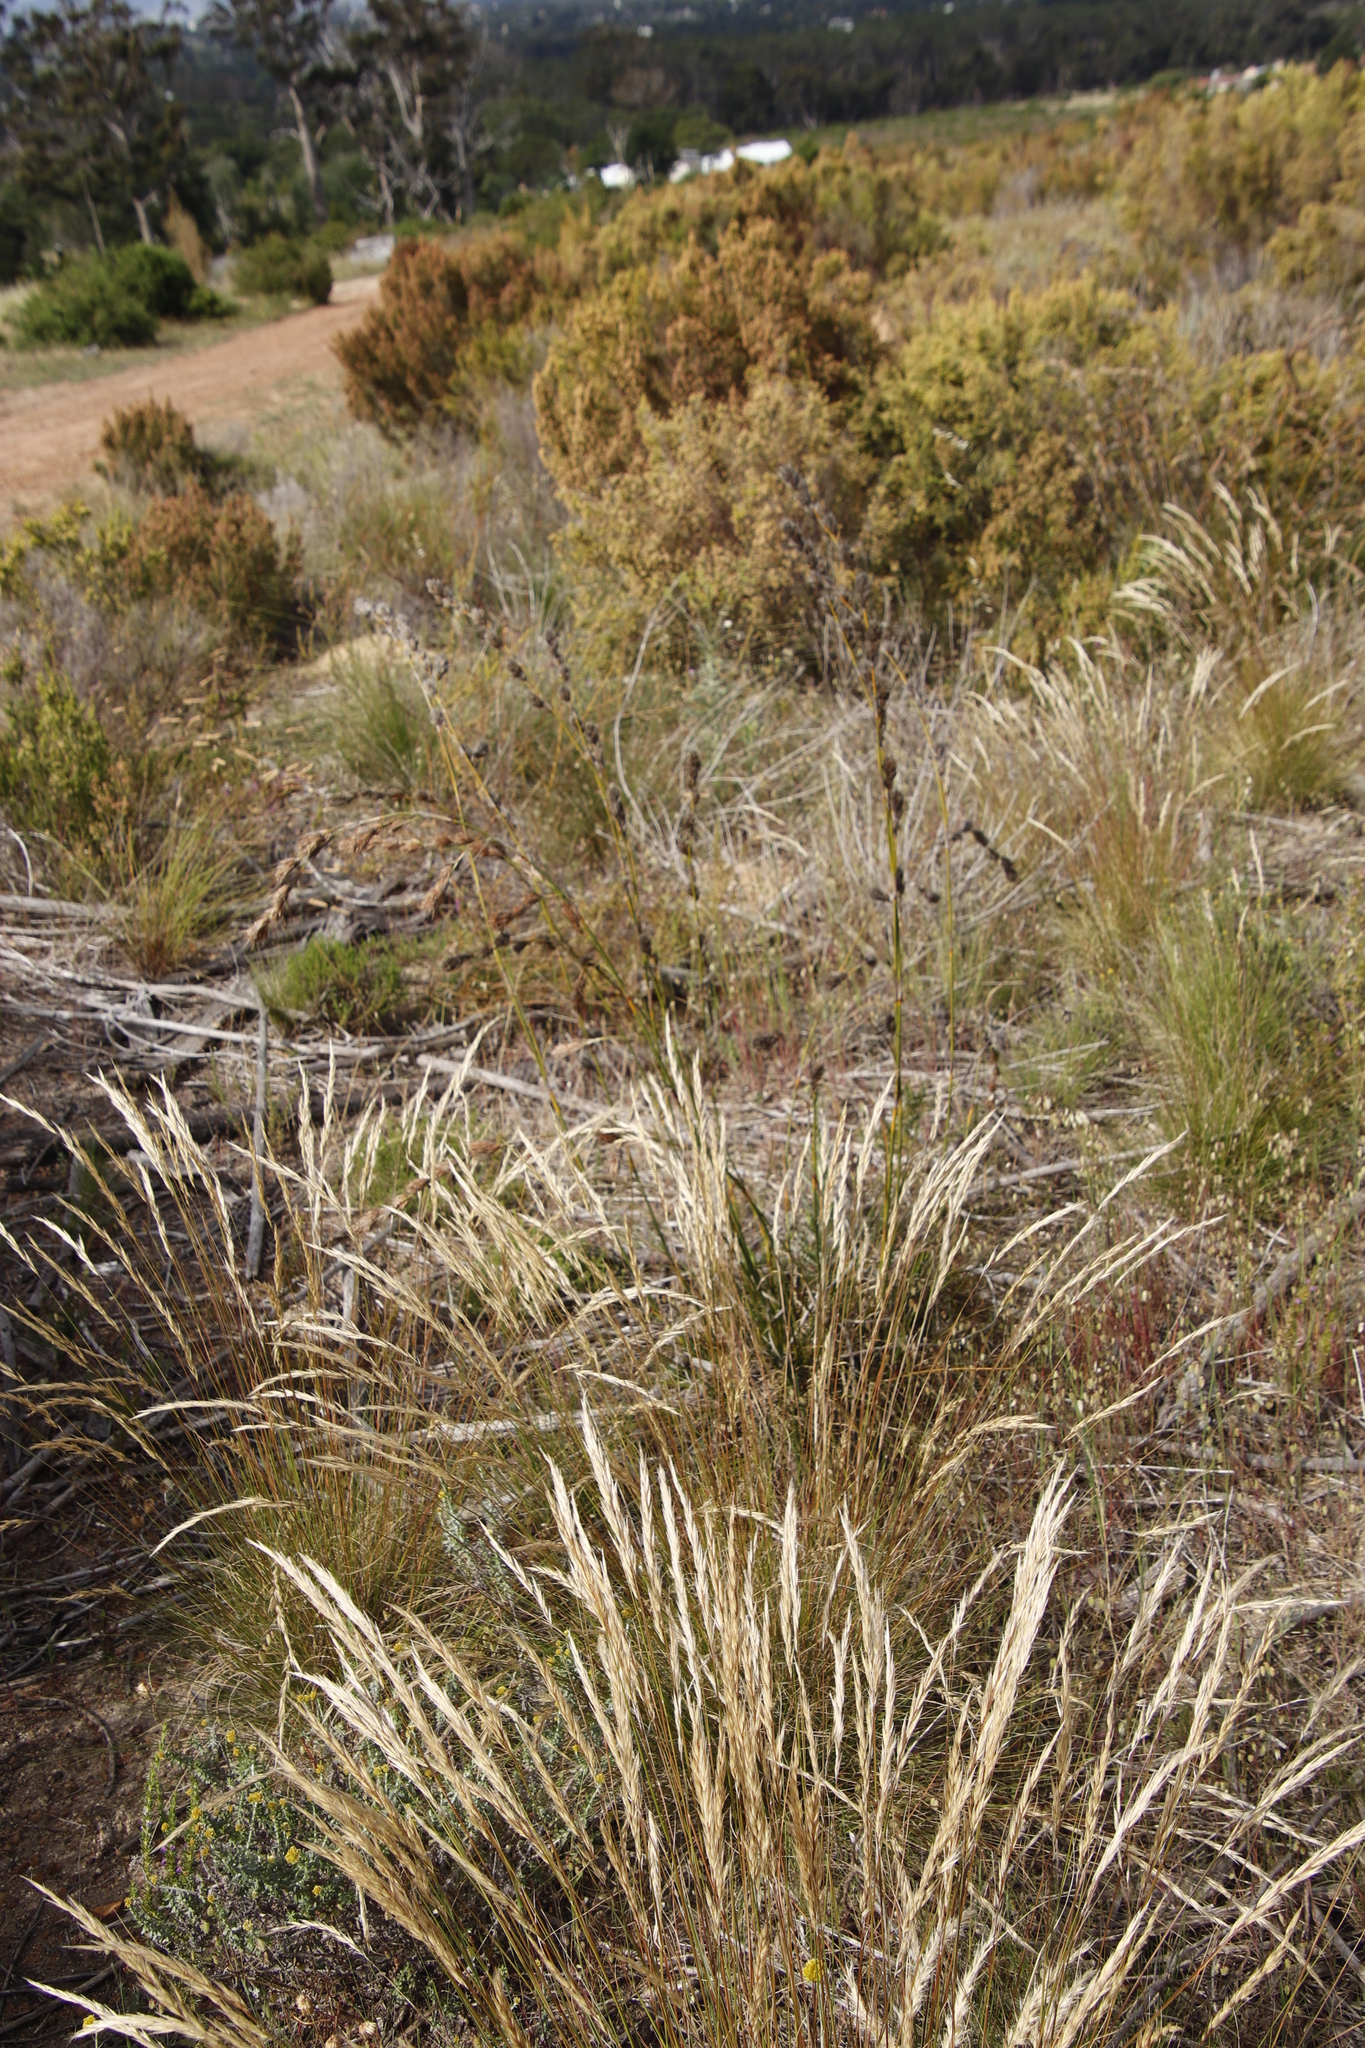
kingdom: Plantae
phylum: Tracheophyta
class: Liliopsida
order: Poales
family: Cyperaceae
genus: Tetraria
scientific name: Tetraria bromoides
